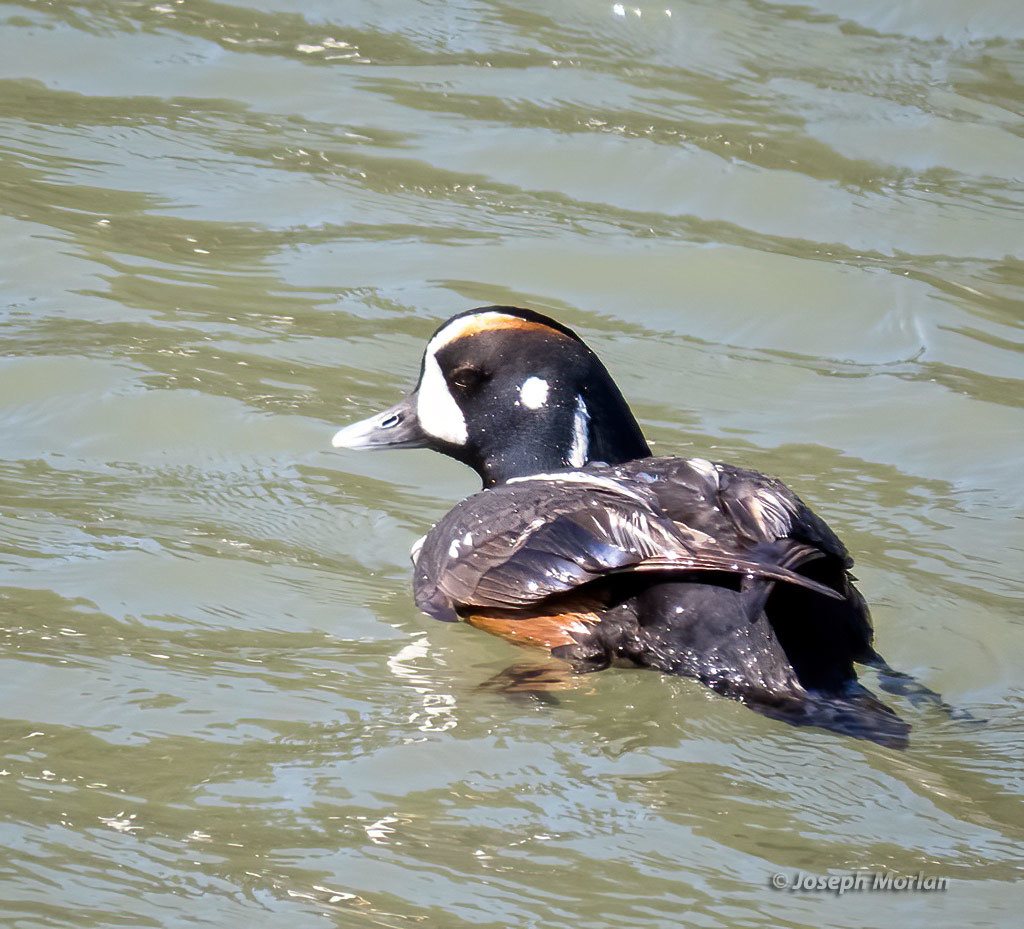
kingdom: Animalia
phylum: Chordata
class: Aves
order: Anseriformes
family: Anatidae
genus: Histrionicus
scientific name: Histrionicus histrionicus
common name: Harlequin duck
